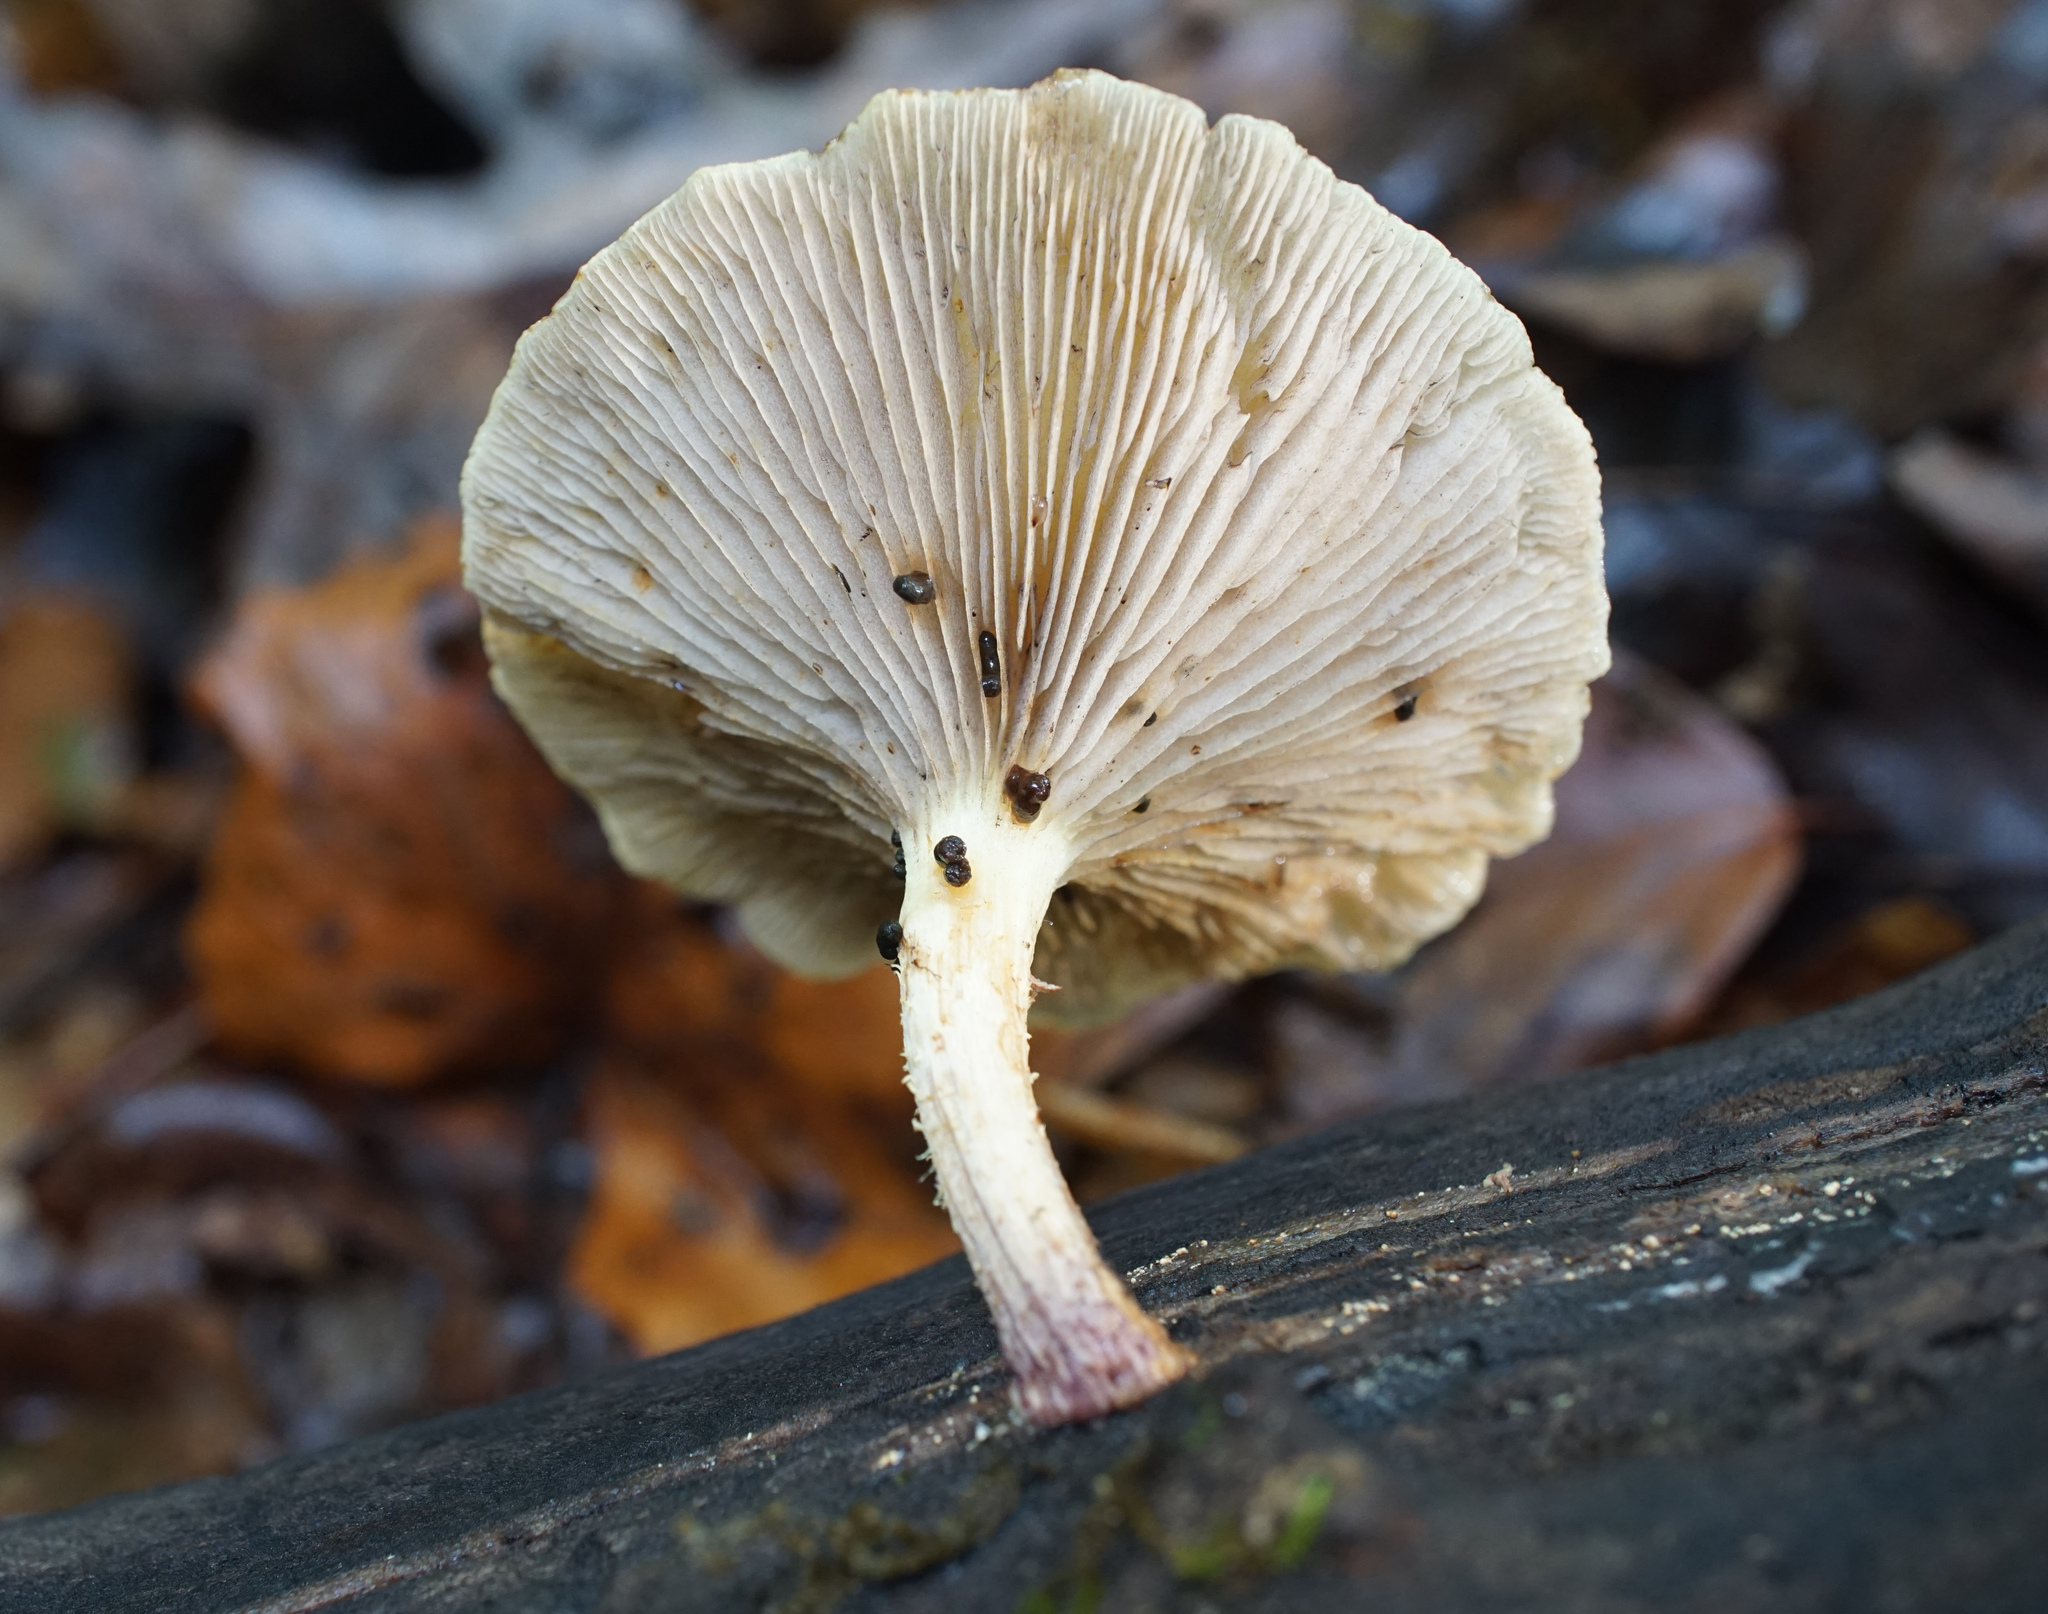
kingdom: Fungi
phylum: Basidiomycota
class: Agaricomycetes
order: Agaricales
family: Strophariaceae
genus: Pholiota
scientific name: Pholiota polychroa
